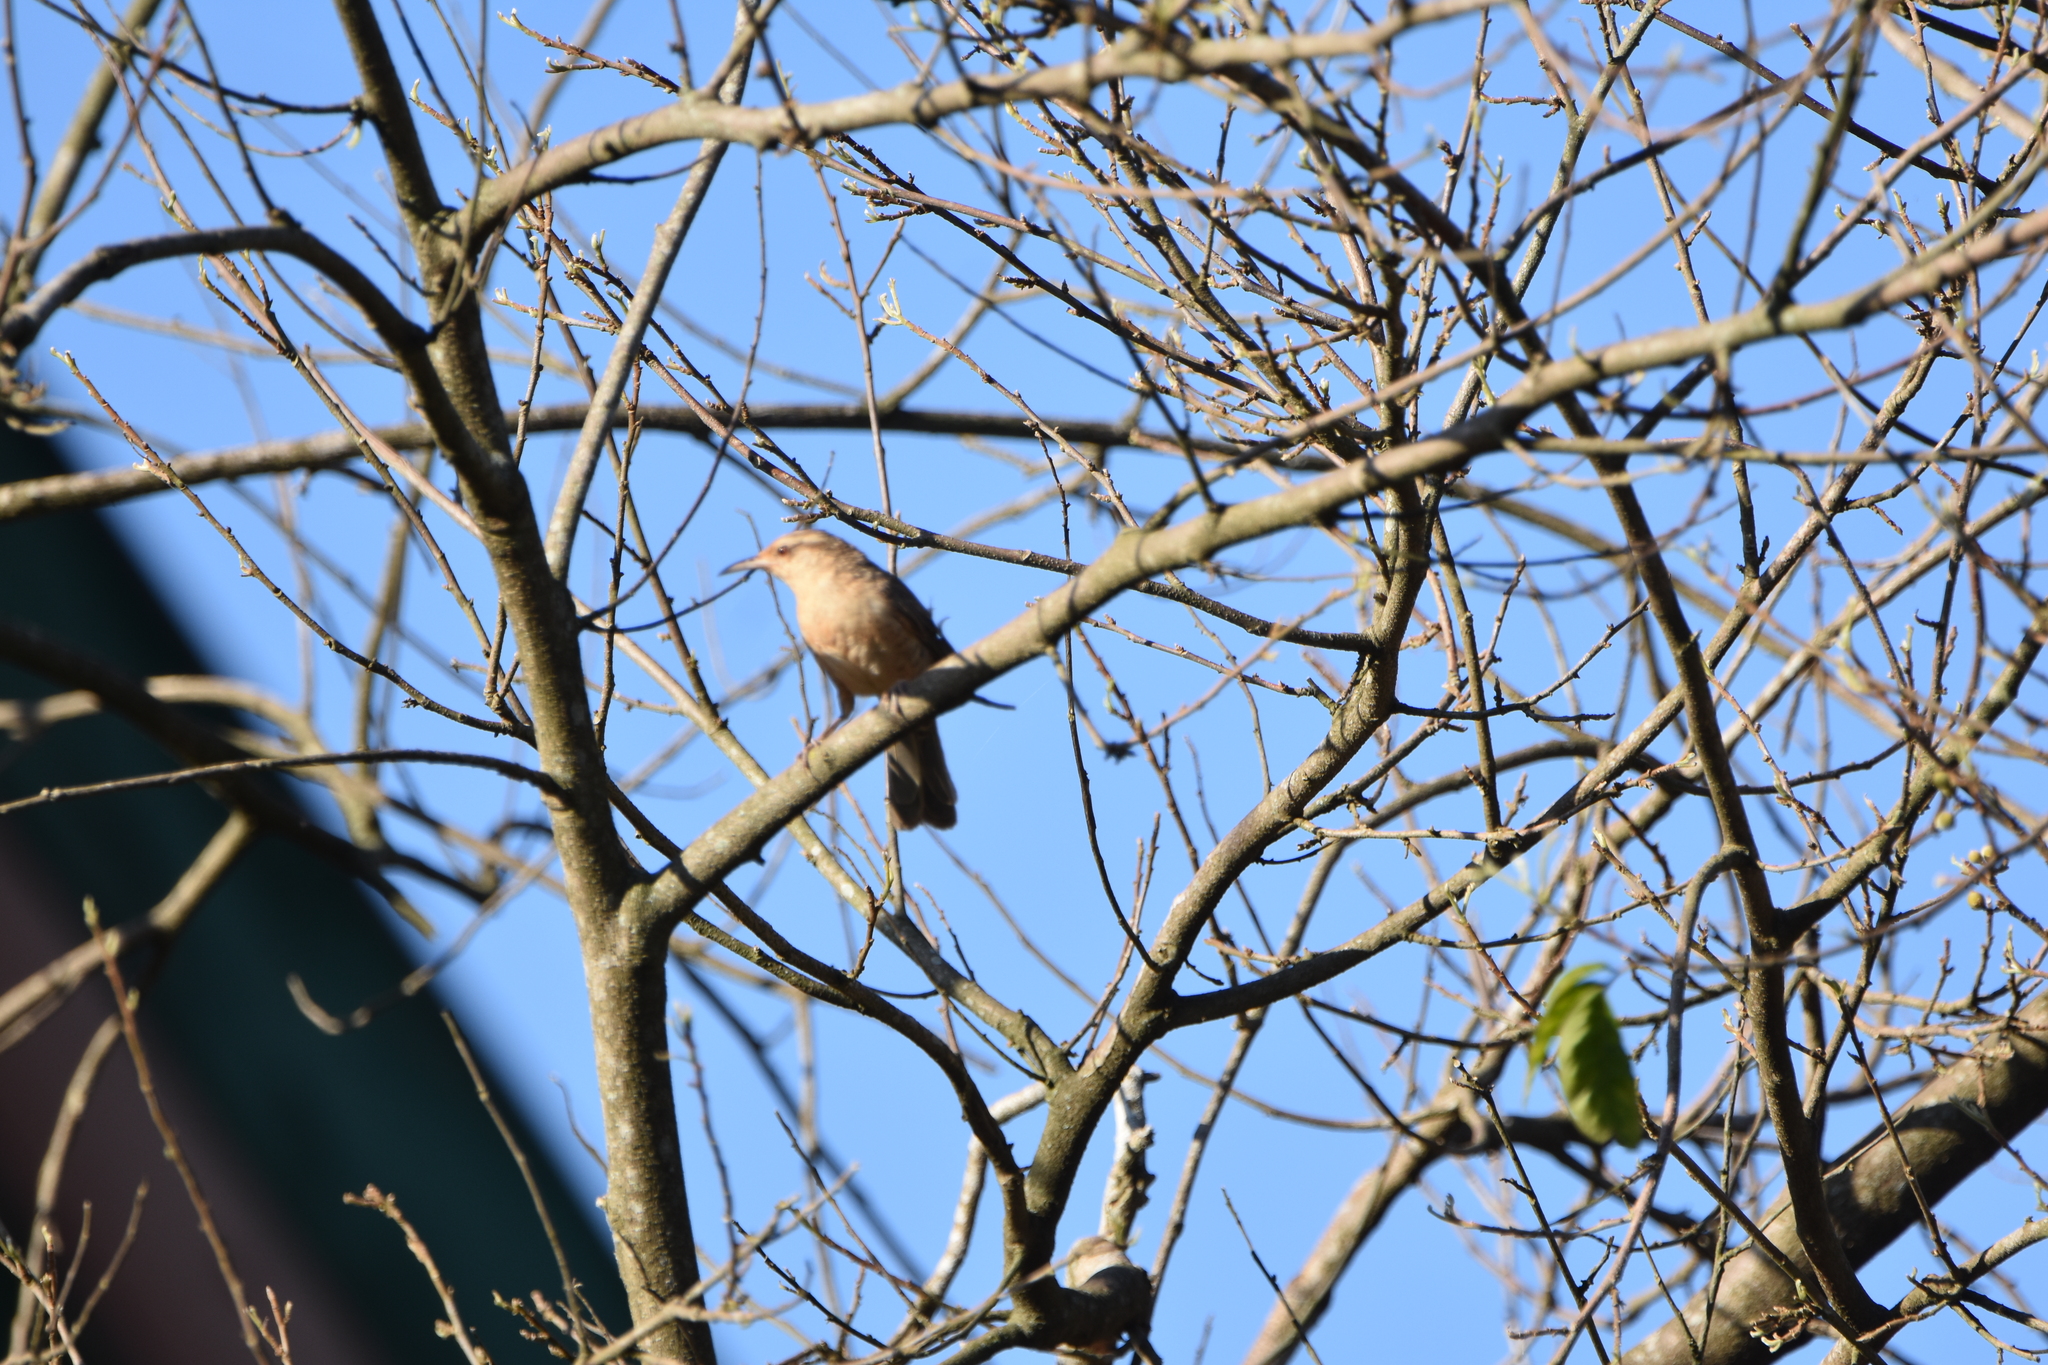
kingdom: Animalia
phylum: Chordata
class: Aves
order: Passeriformes
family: Troglodytidae
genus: Campylorhynchus
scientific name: Campylorhynchus turdinus
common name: Thrush-like wren
